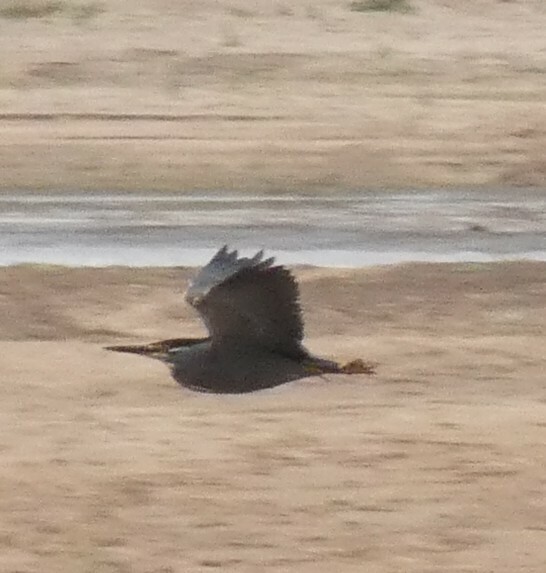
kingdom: Animalia
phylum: Chordata
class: Aves
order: Pelecaniformes
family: Ardeidae
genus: Butorides
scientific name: Butorides striata
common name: Striated heron
